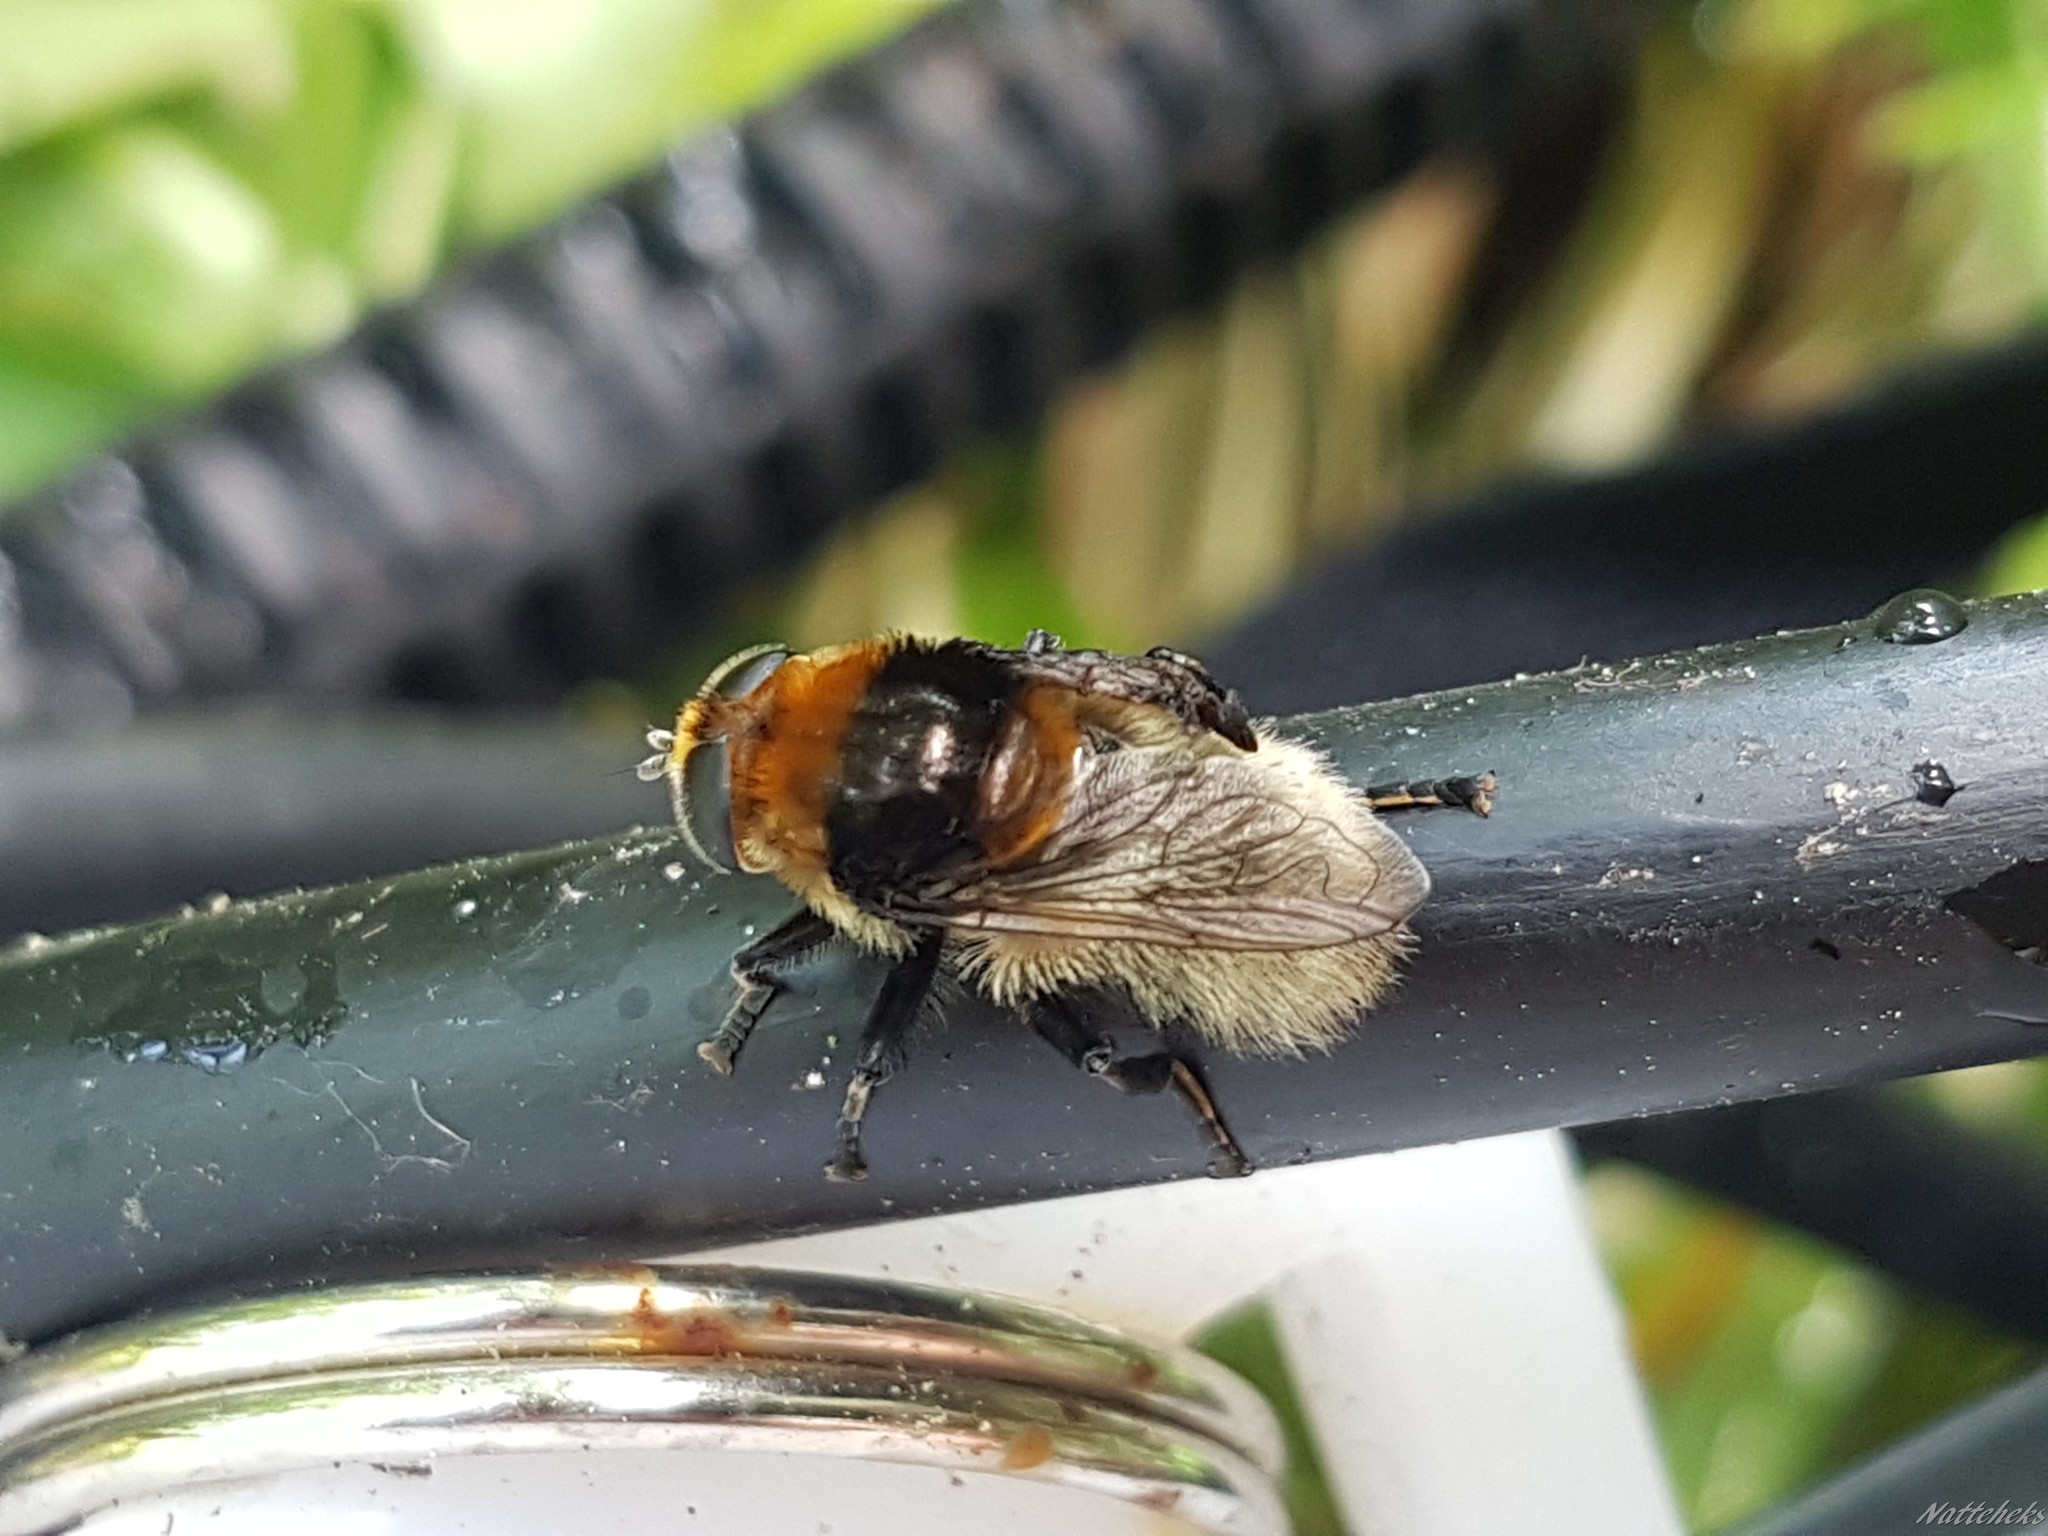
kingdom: Animalia
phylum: Arthropoda
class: Insecta
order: Diptera
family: Syrphidae
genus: Merodon
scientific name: Merodon equestris
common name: Greater bulb-fly
